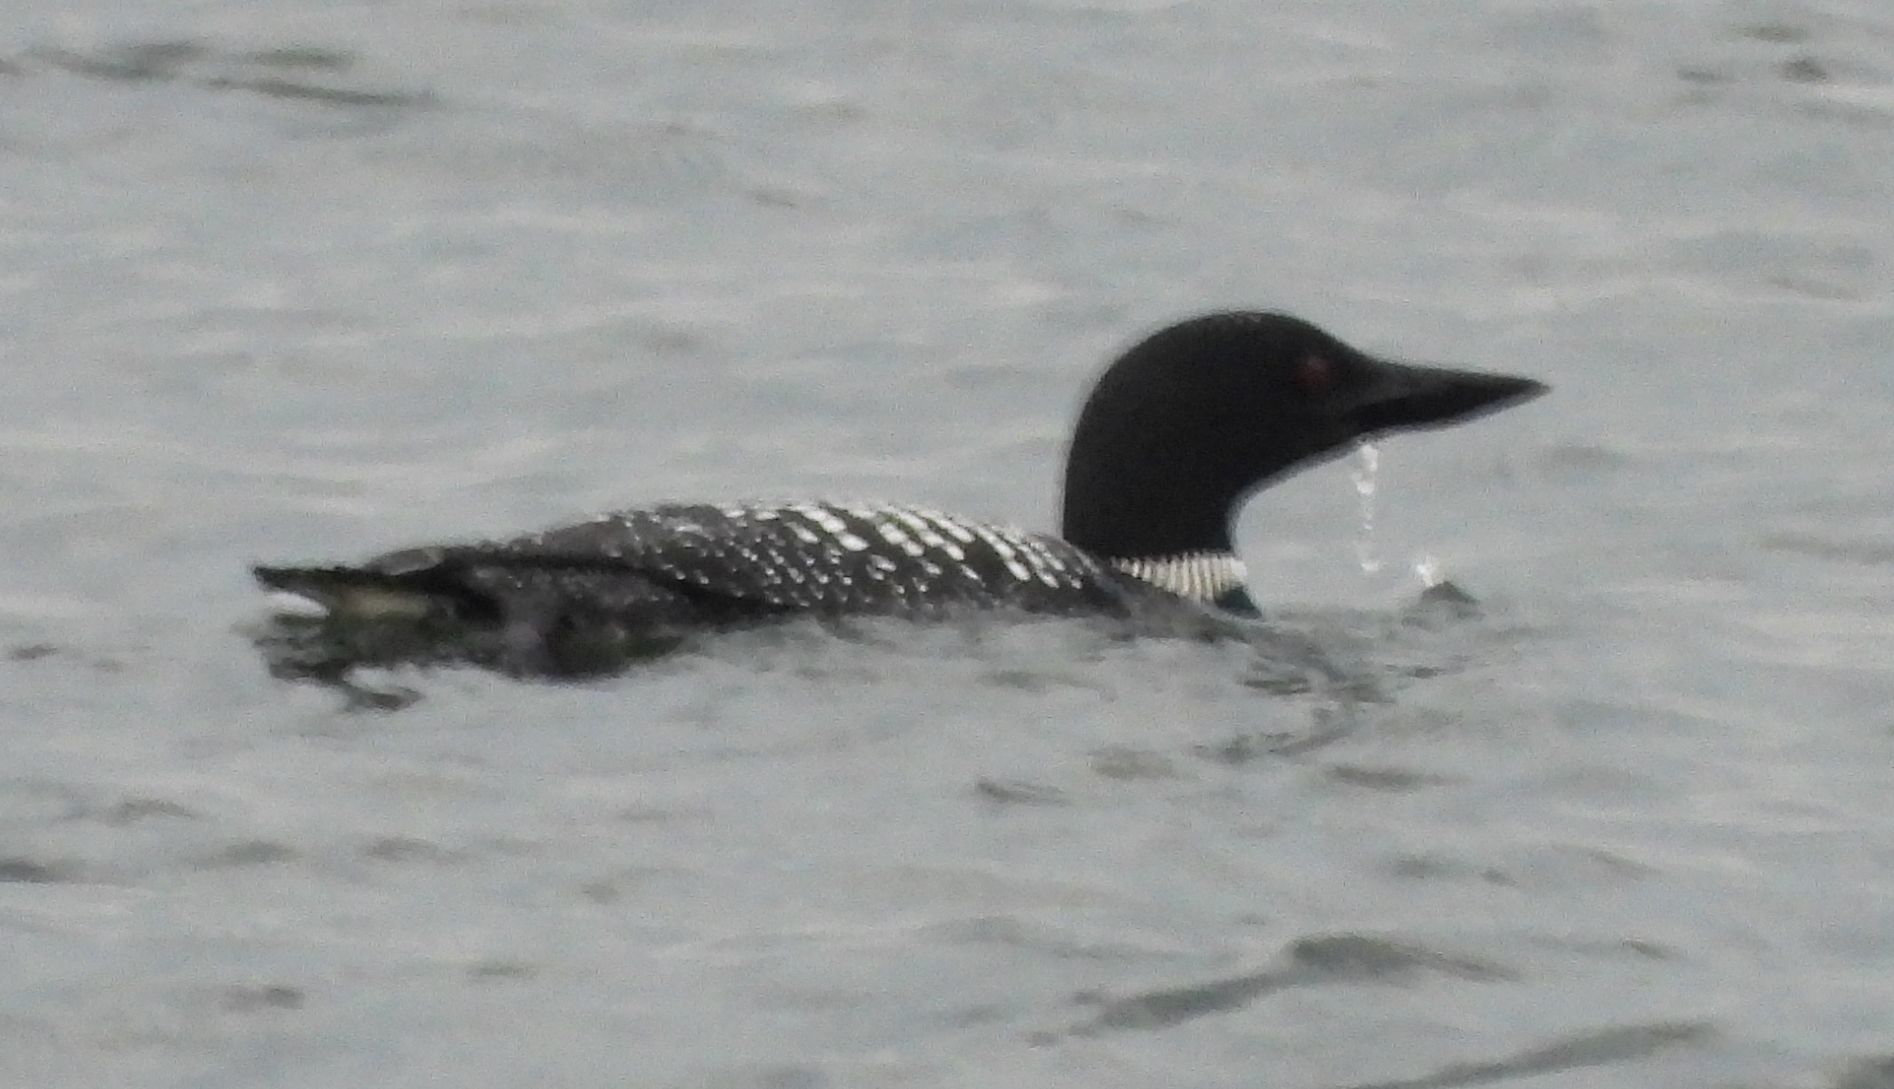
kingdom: Animalia
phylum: Chordata
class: Aves
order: Gaviiformes
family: Gaviidae
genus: Gavia
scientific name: Gavia immer
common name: Common loon
